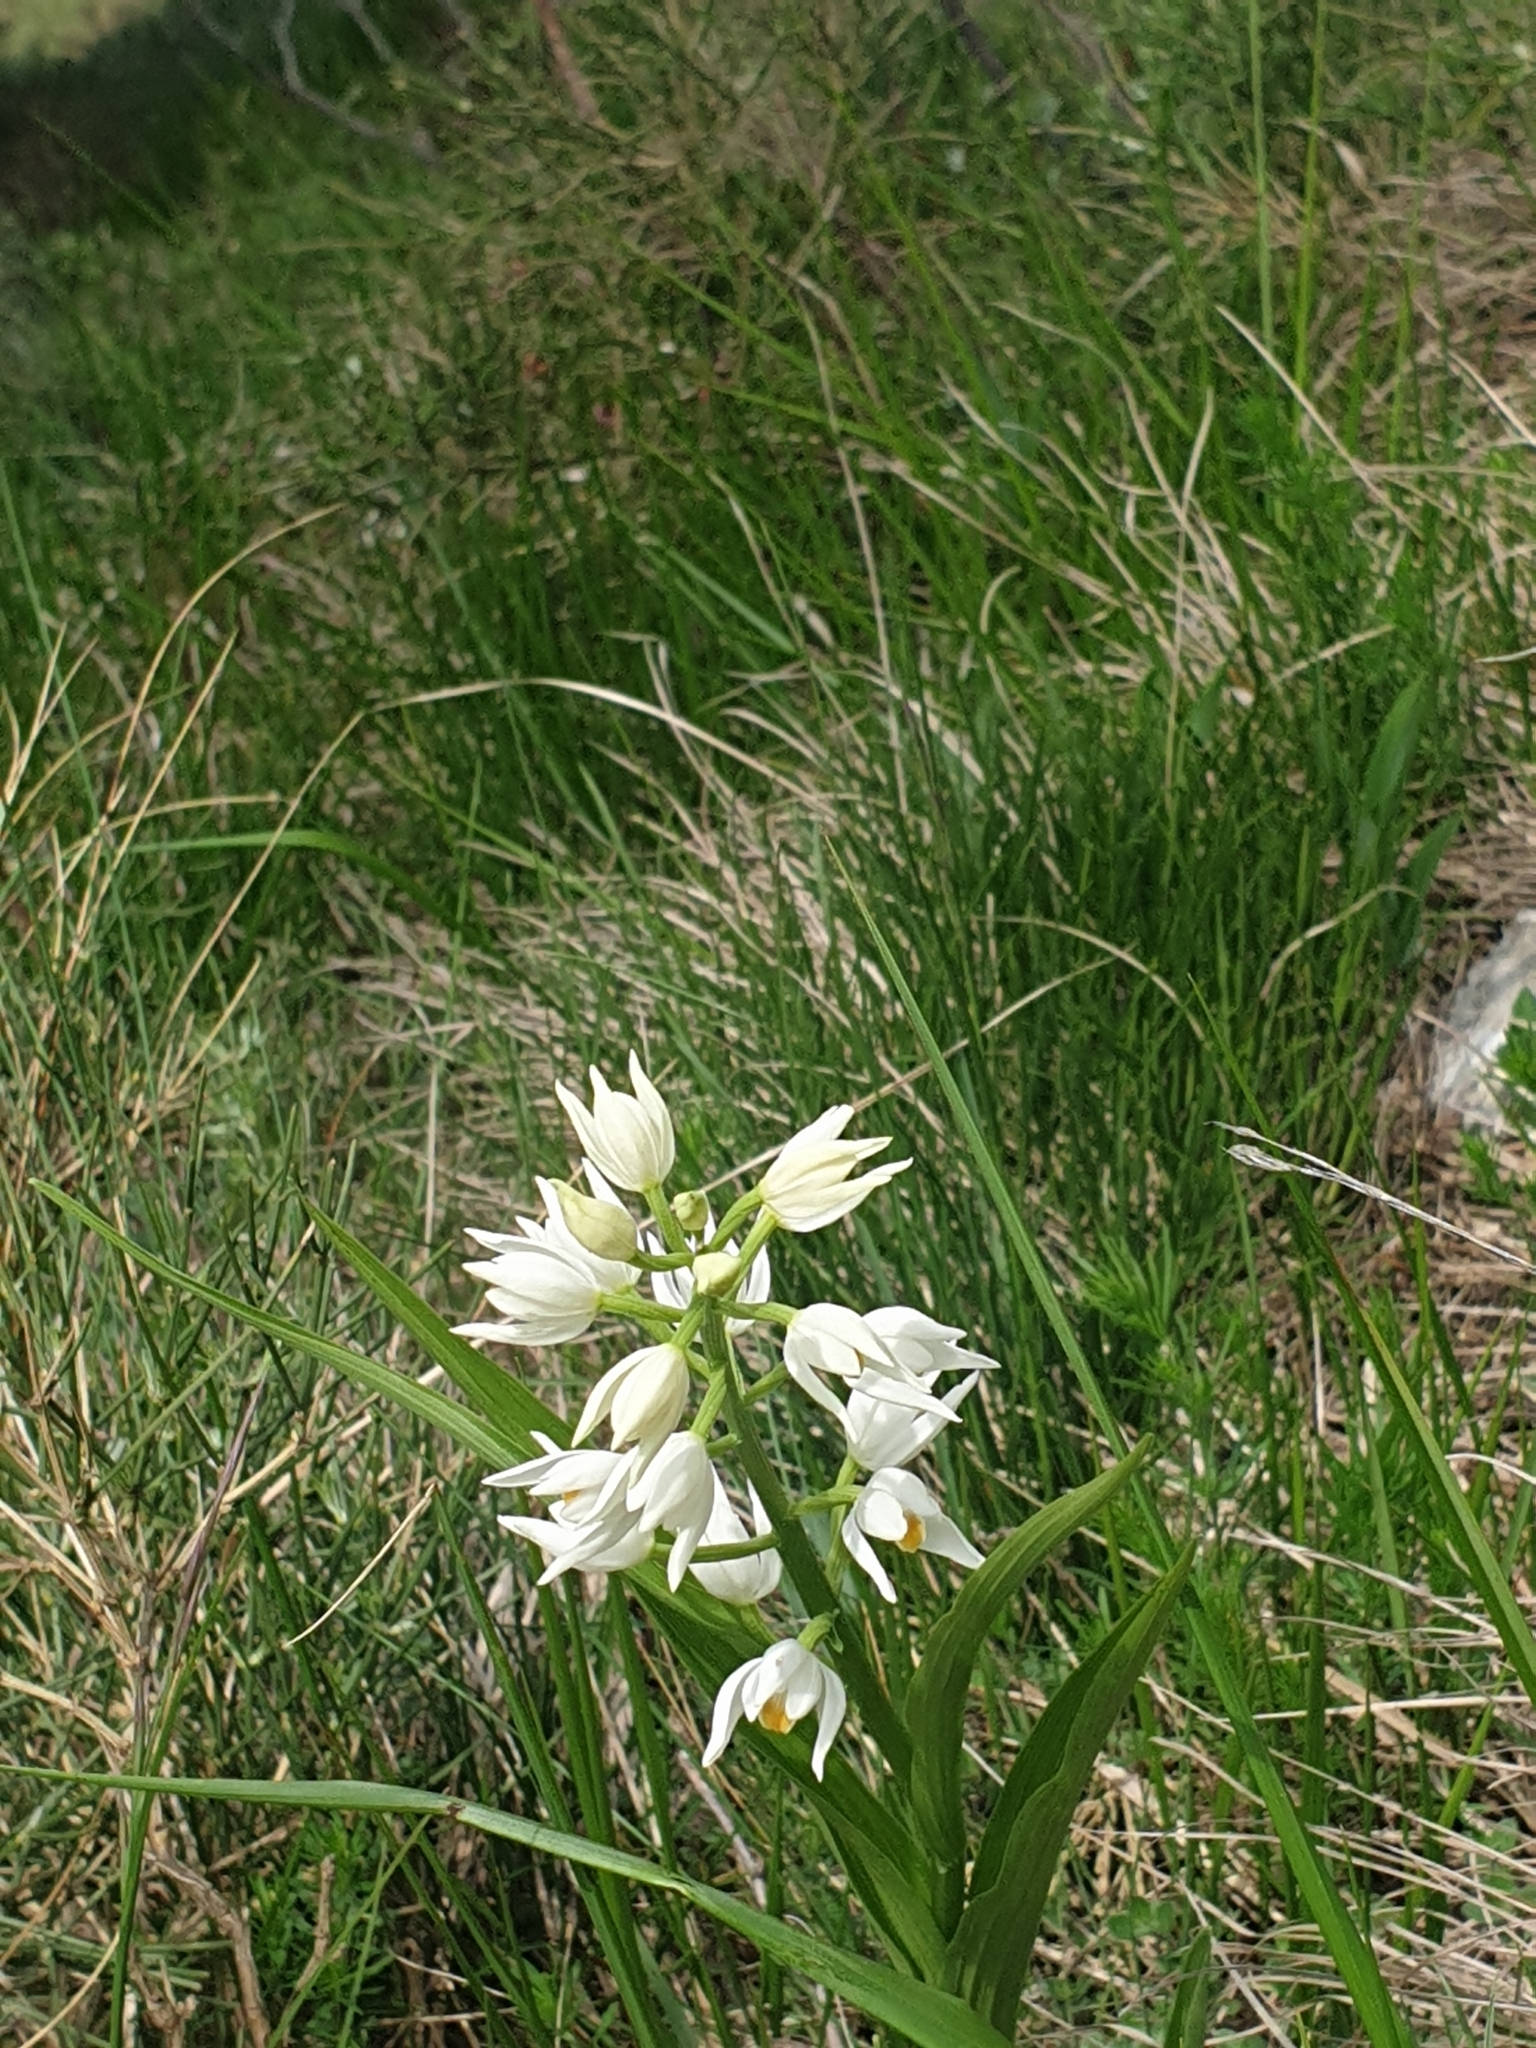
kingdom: Plantae
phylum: Tracheophyta
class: Liliopsida
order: Asparagales
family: Orchidaceae
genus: Cephalanthera
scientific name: Cephalanthera longifolia
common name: Narrow-leaved helleborine
